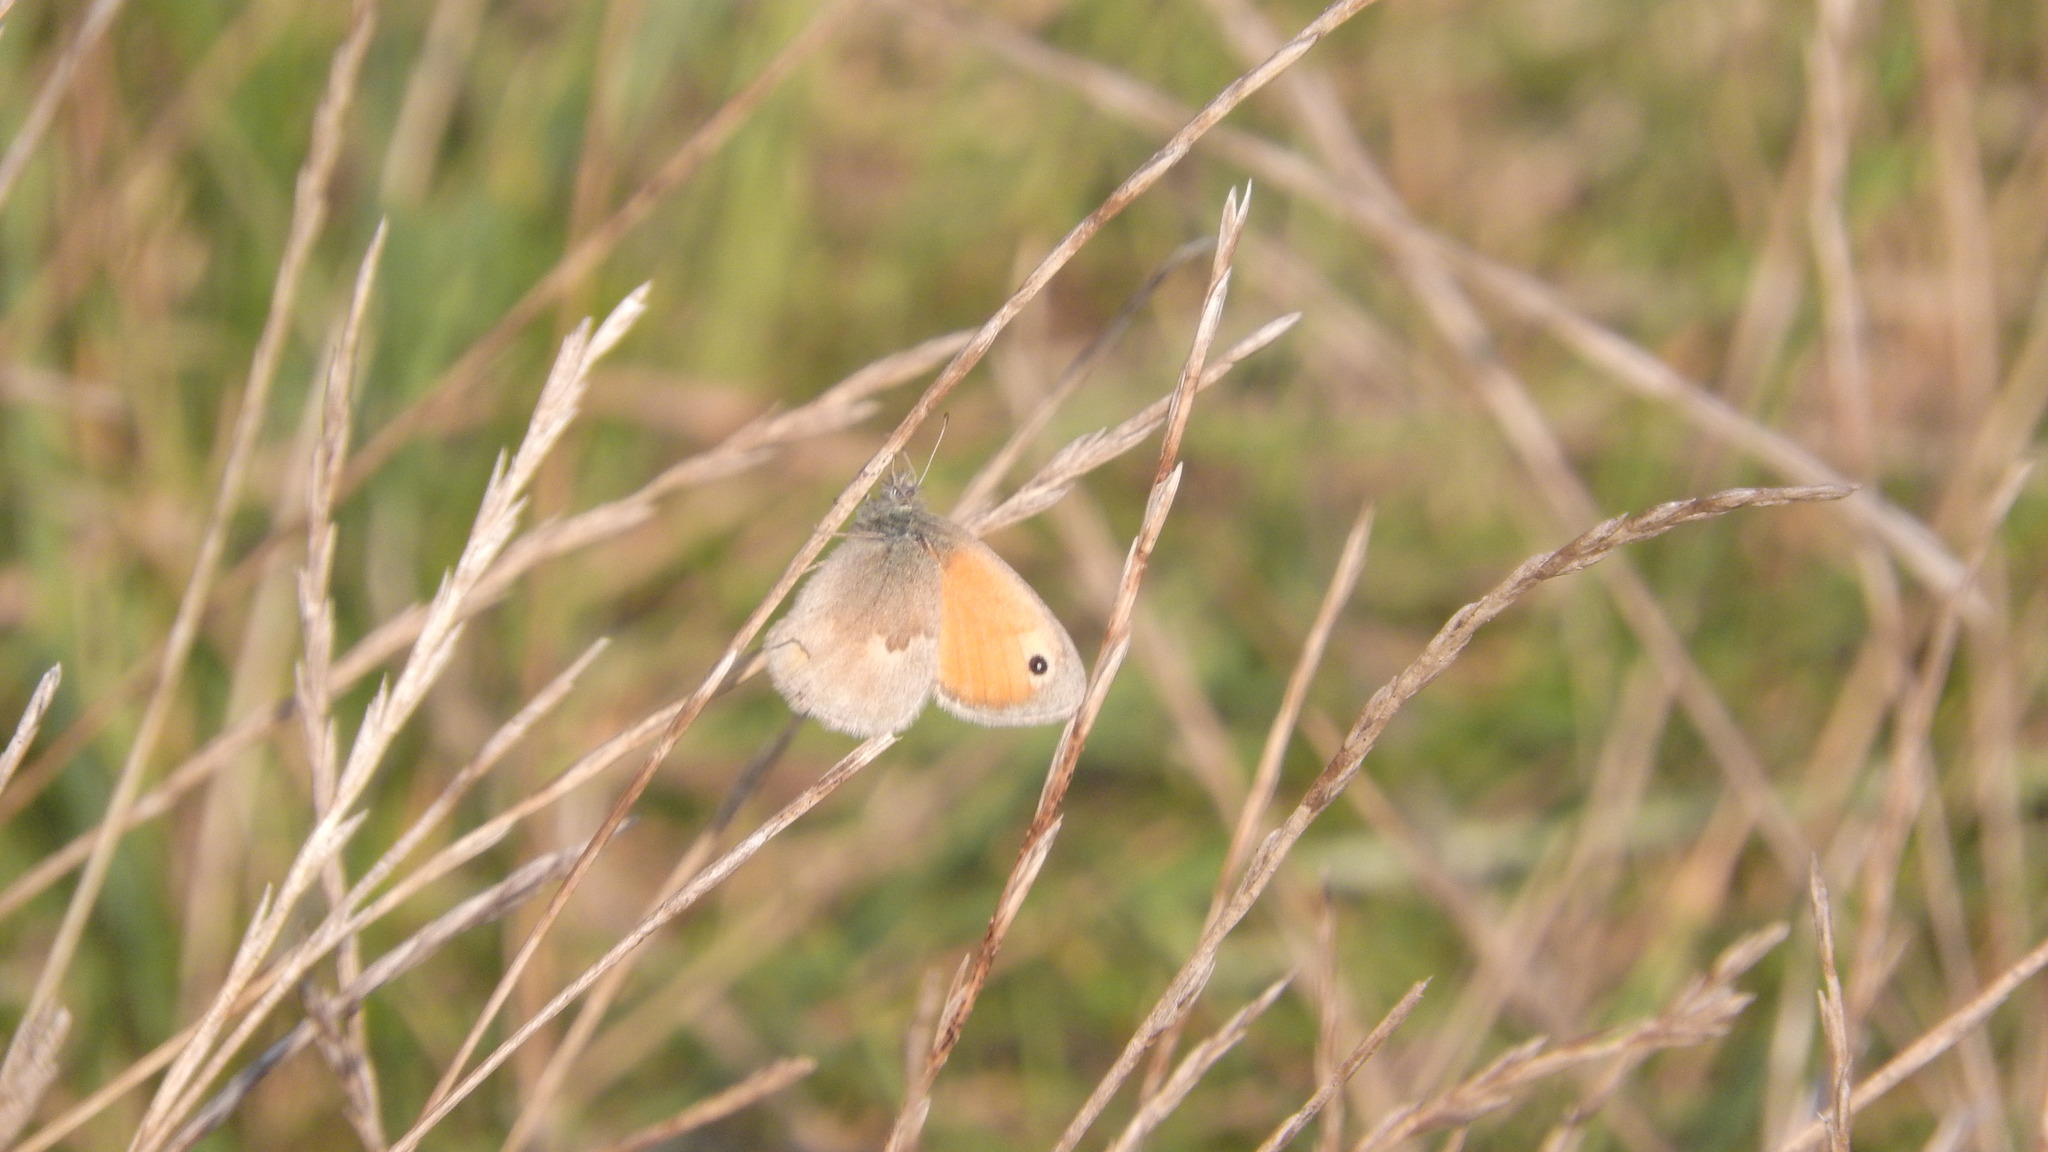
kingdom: Animalia
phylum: Arthropoda
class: Insecta
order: Lepidoptera
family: Nymphalidae
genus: Coenonympha
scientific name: Coenonympha pamphilus
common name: Small heath
